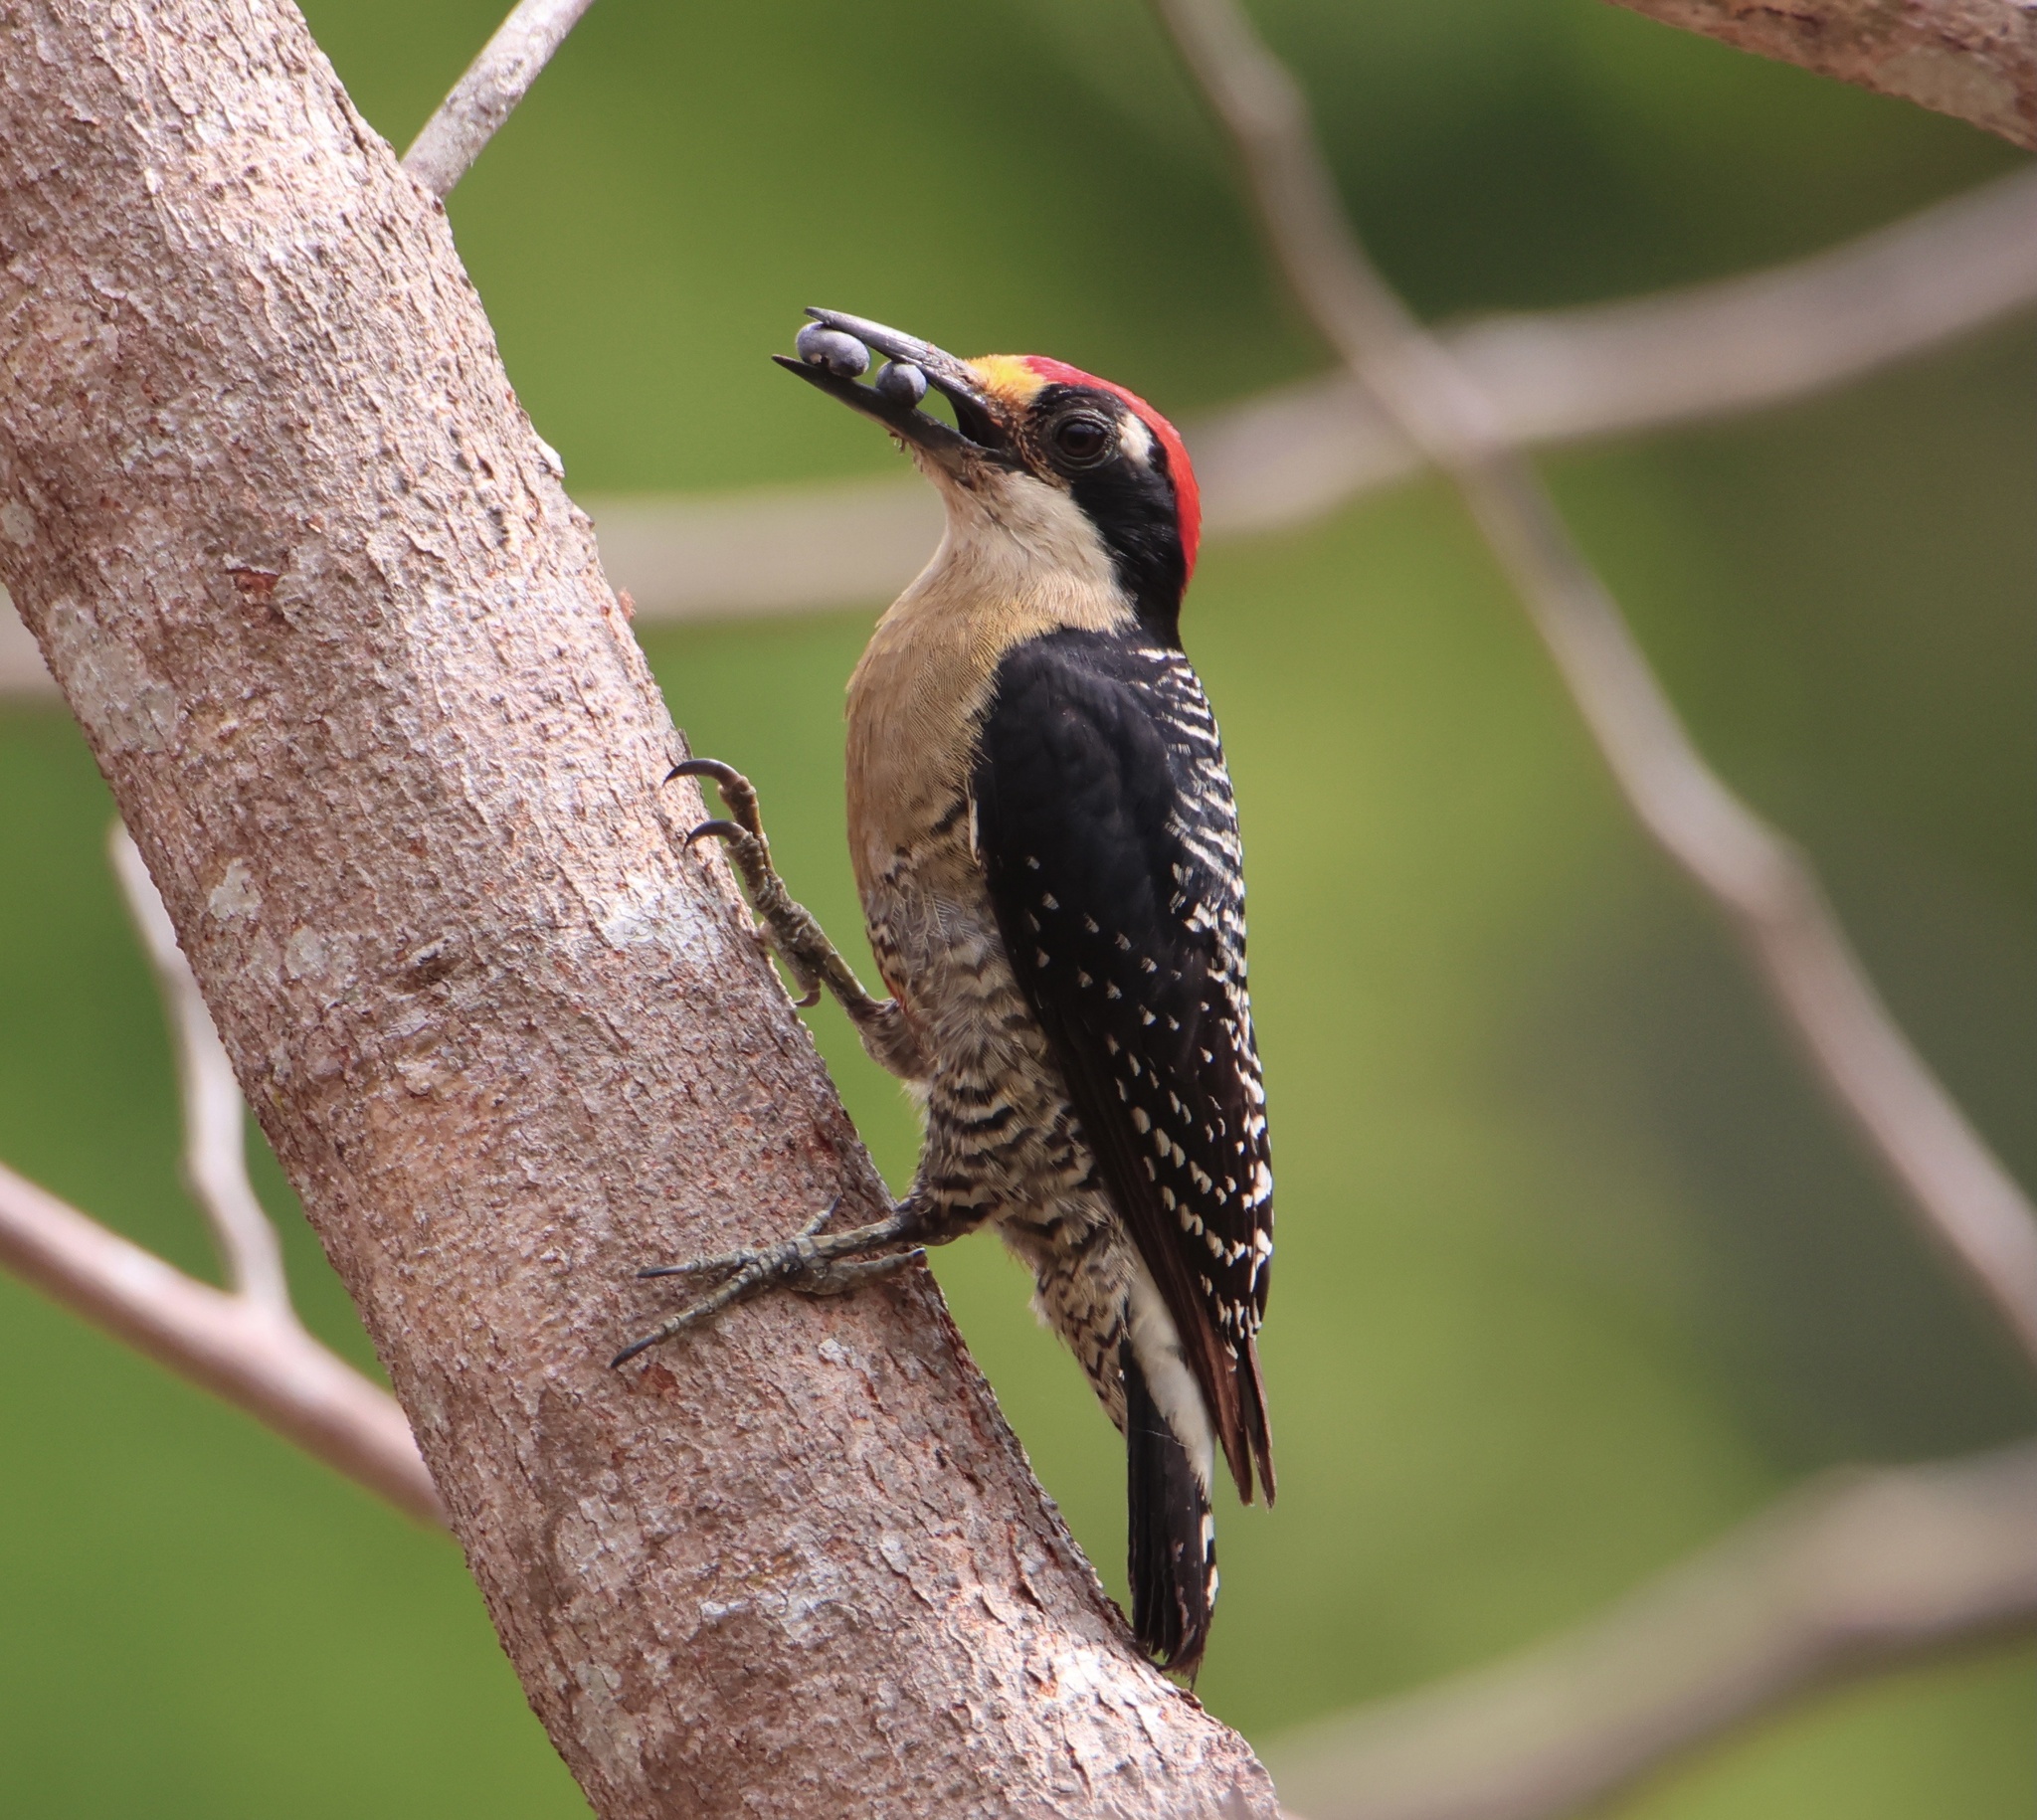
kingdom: Animalia
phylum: Chordata
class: Aves
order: Piciformes
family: Picidae
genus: Melanerpes
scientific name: Melanerpes pucherani
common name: Black-cheeked woodpecker
